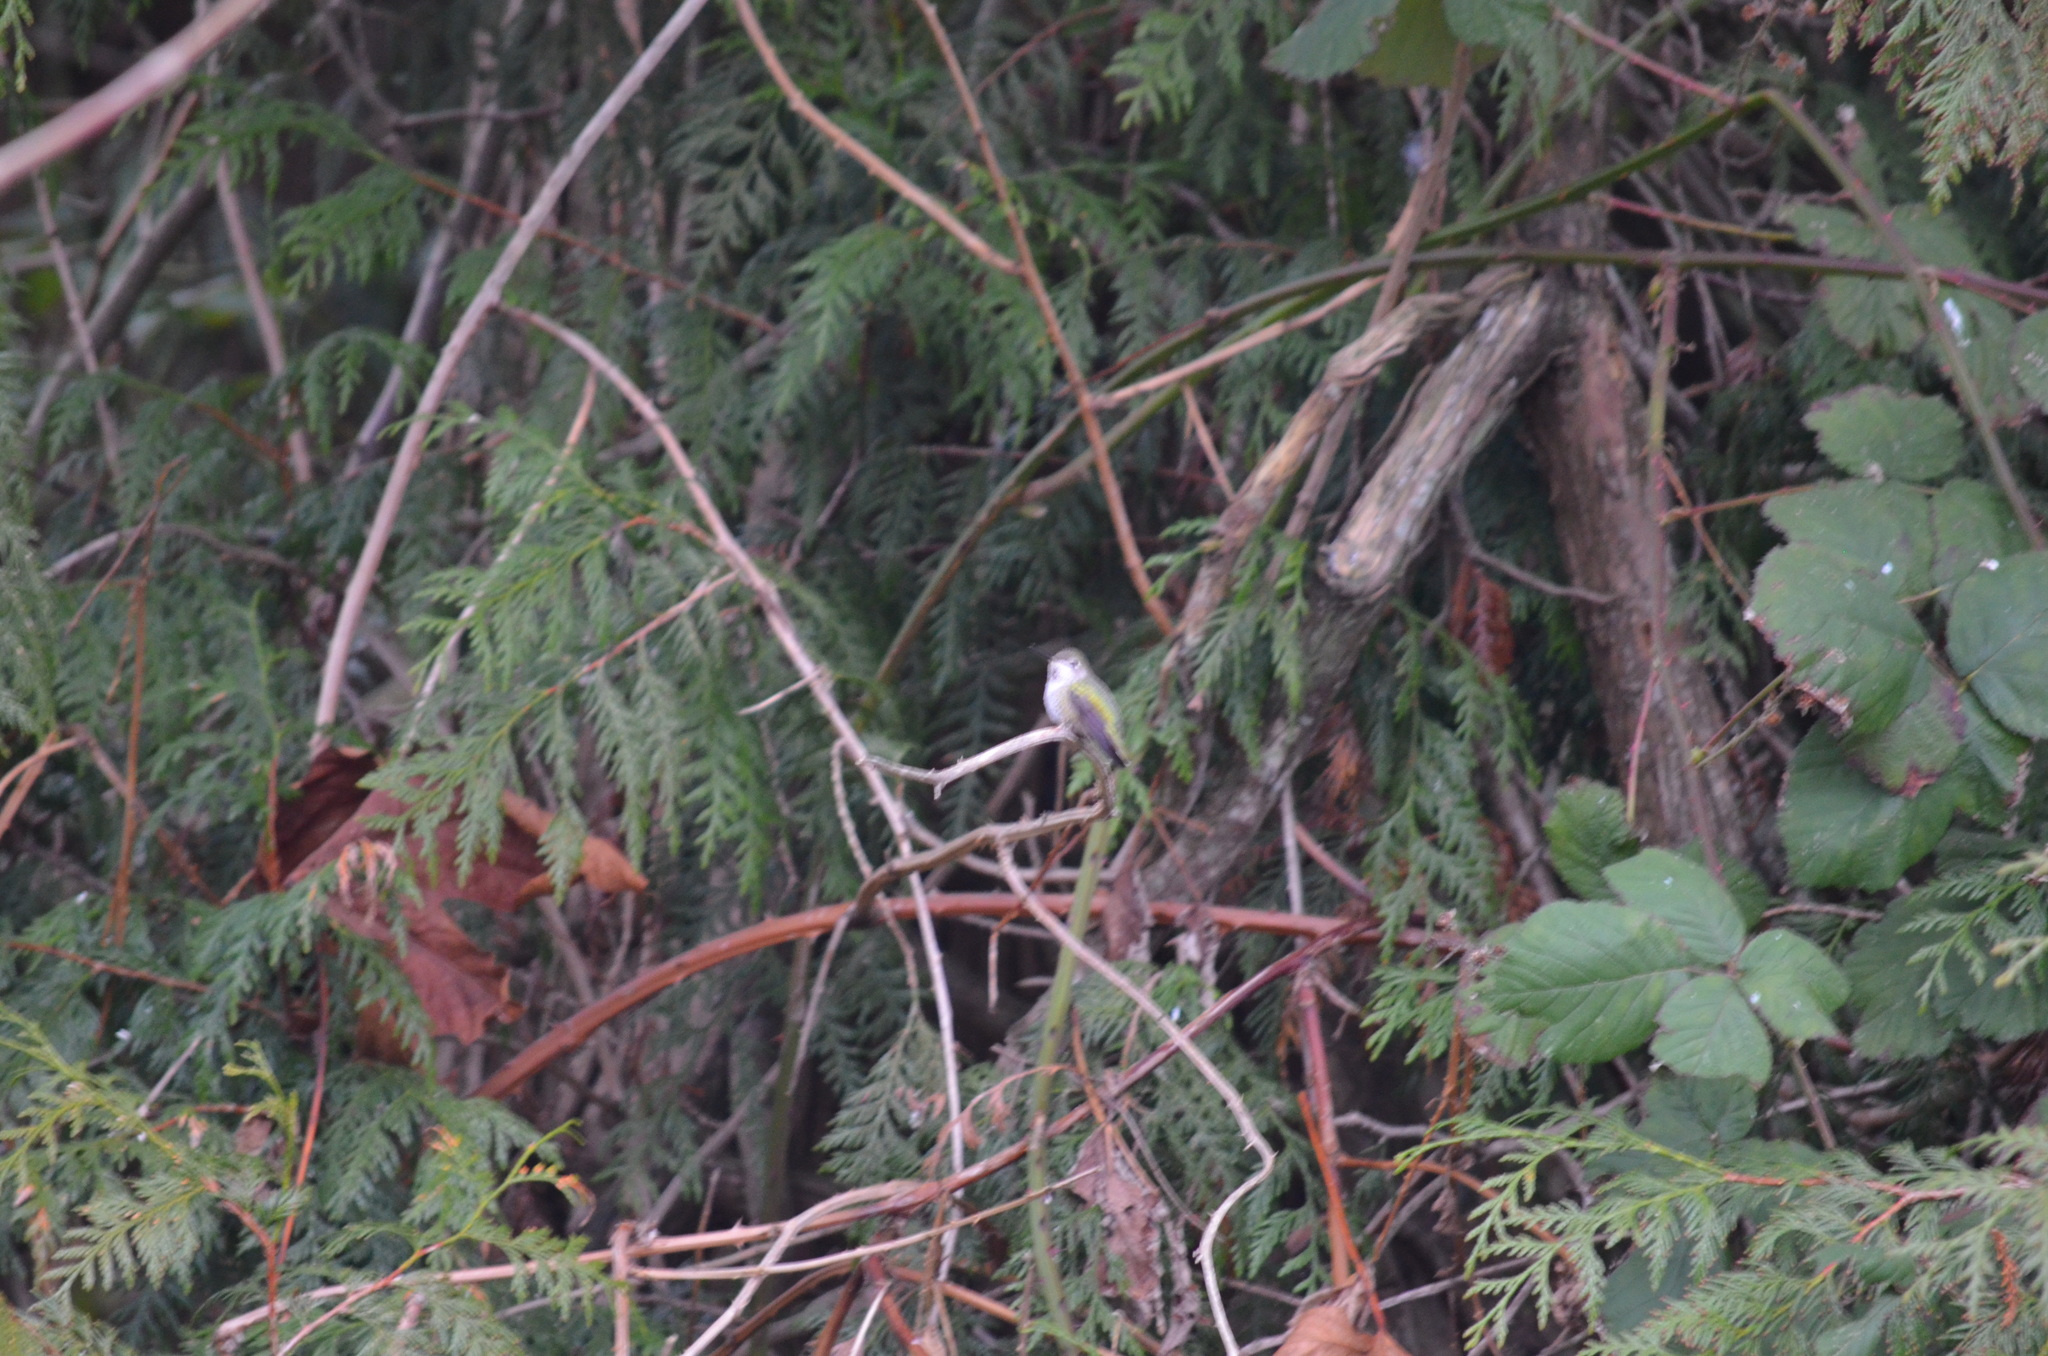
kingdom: Animalia
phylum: Chordata
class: Aves
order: Apodiformes
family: Trochilidae
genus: Calypte
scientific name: Calypte anna
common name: Anna's hummingbird
